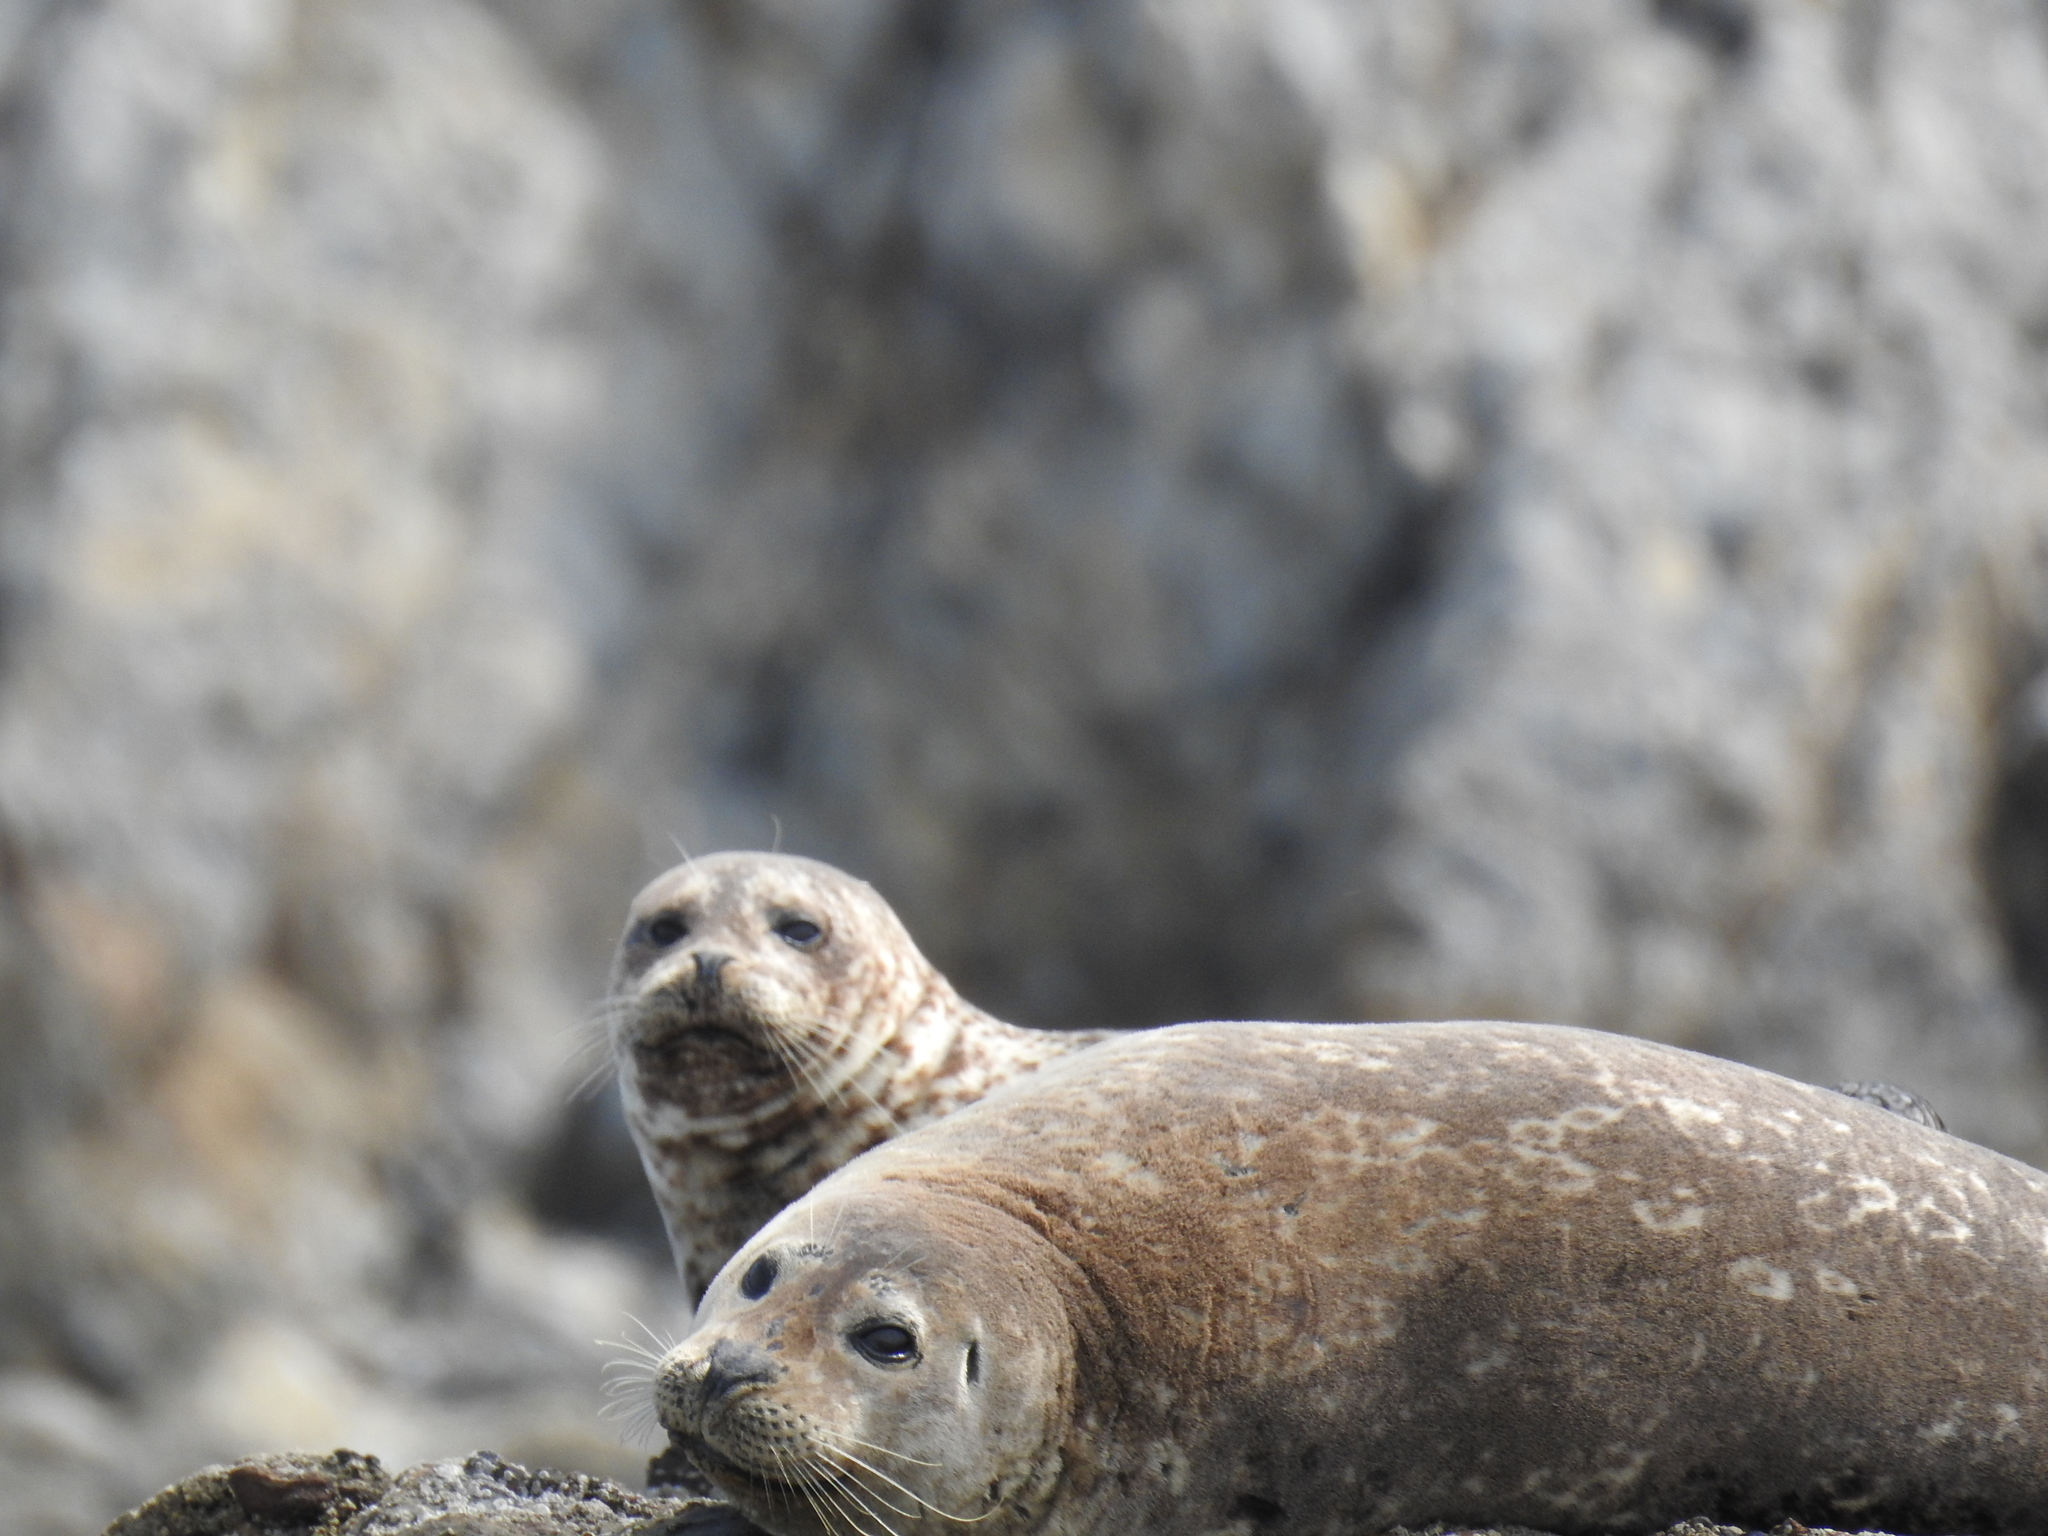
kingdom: Animalia
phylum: Chordata
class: Mammalia
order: Carnivora
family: Phocidae
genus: Phoca
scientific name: Phoca vitulina
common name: Harbor seal
